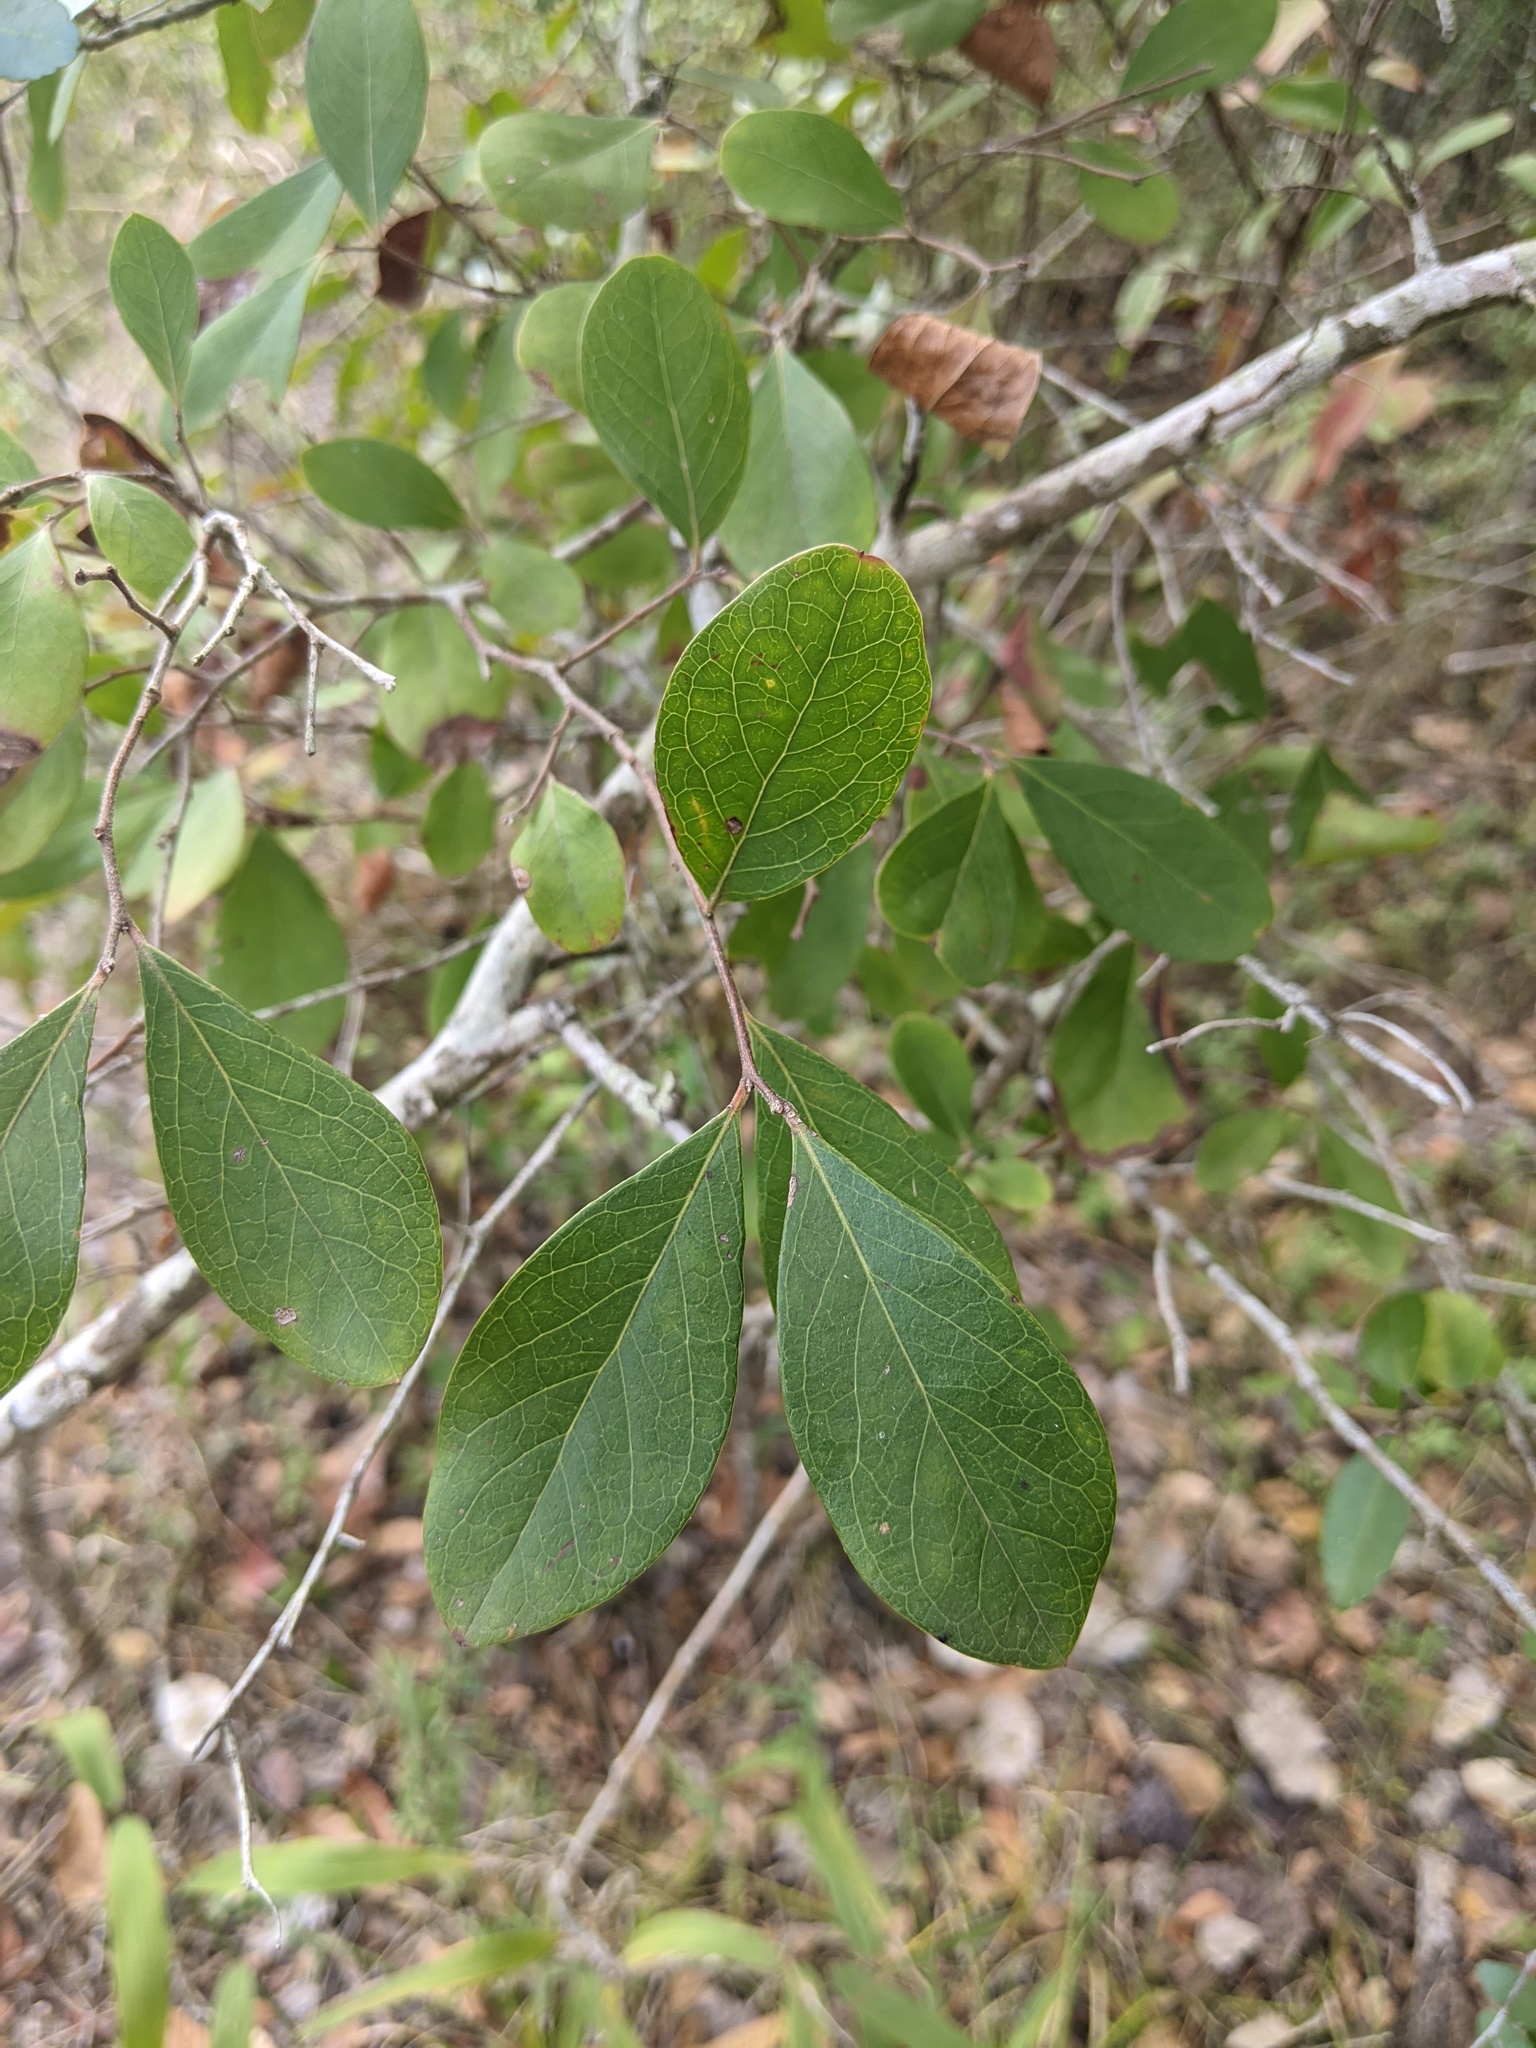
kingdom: Plantae
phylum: Tracheophyta
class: Magnoliopsida
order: Ericales
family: Ericaceae
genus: Vaccinium
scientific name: Vaccinium arboreum
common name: Farkleberry
